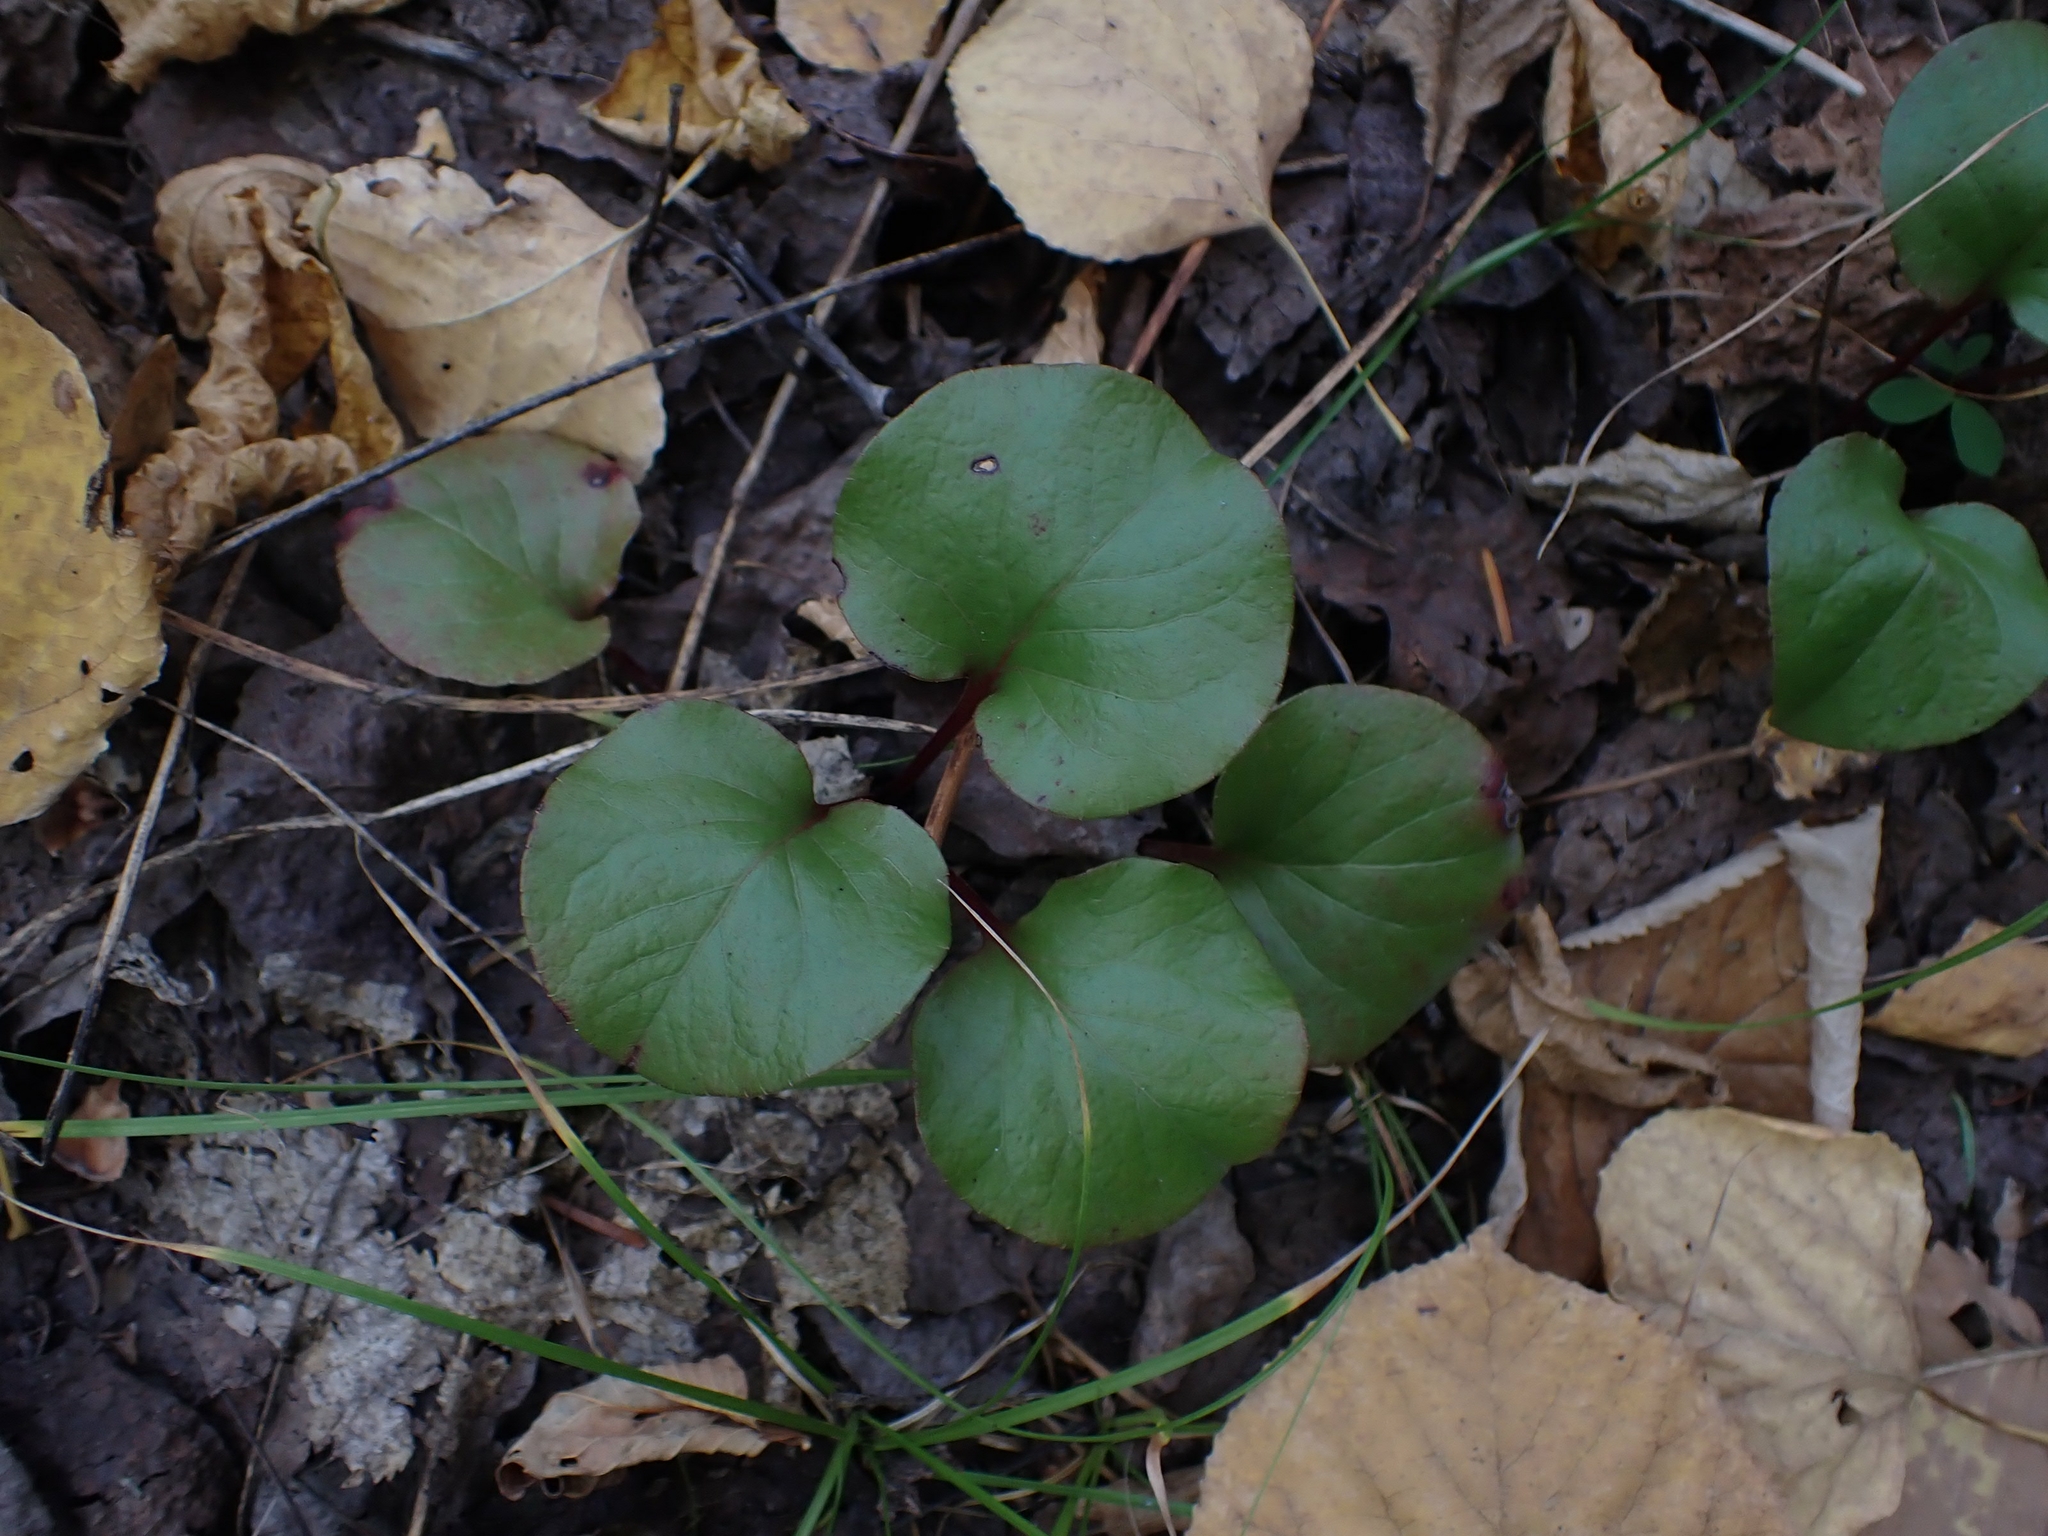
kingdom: Plantae
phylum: Tracheophyta
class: Magnoliopsida
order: Ericales
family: Ericaceae
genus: Pyrola
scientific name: Pyrola asarifolia
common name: Bog wintergreen
